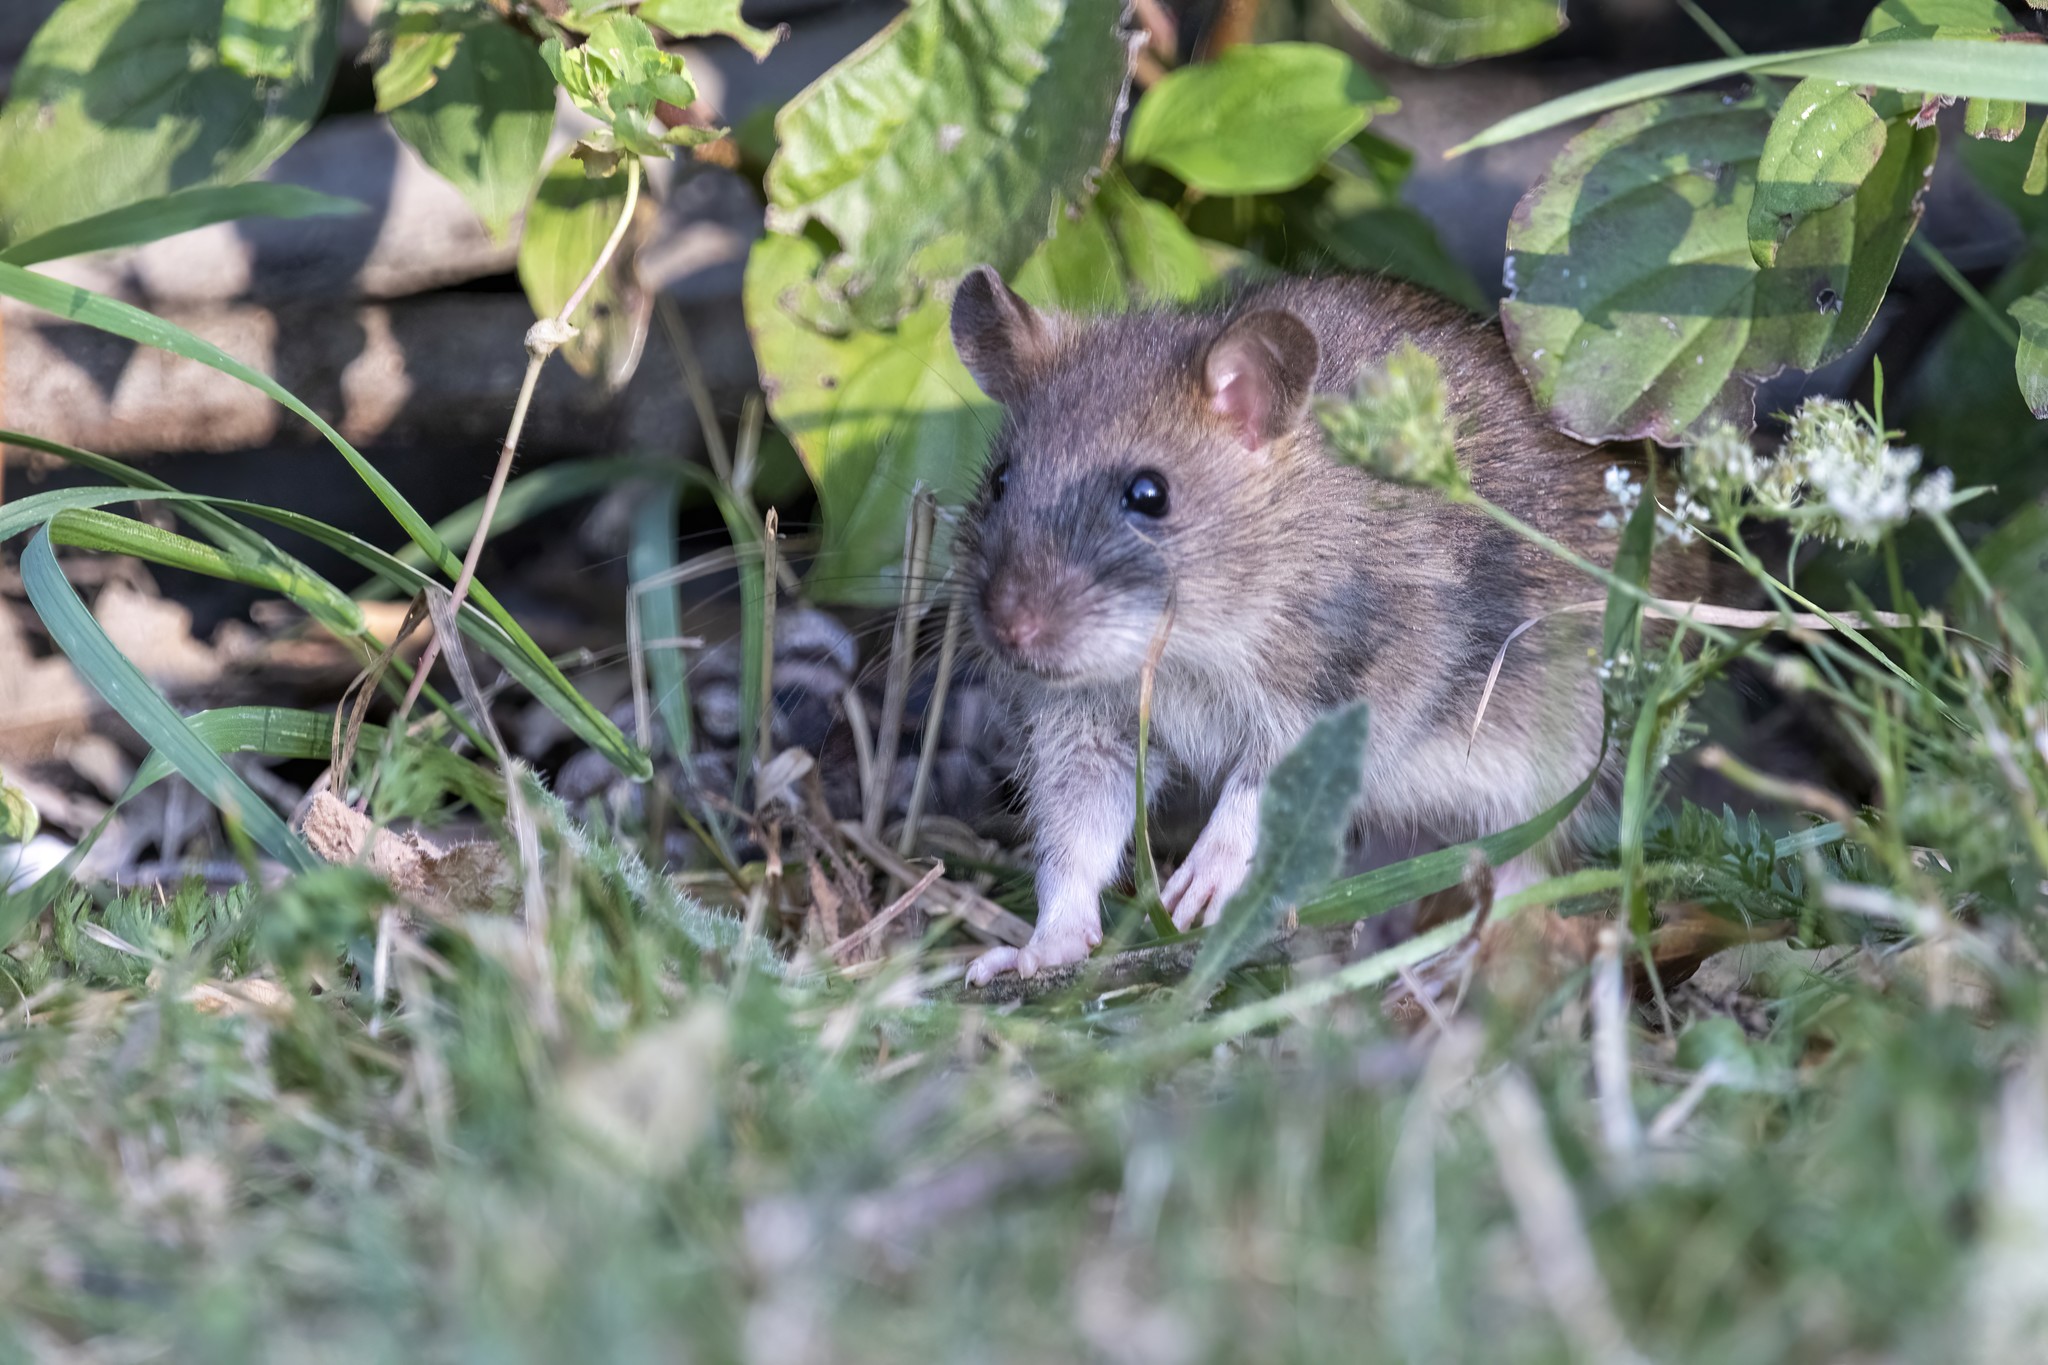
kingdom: Animalia
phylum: Chordata
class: Mammalia
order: Rodentia
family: Muridae
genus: Rattus
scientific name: Rattus norvegicus
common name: Brown rat
